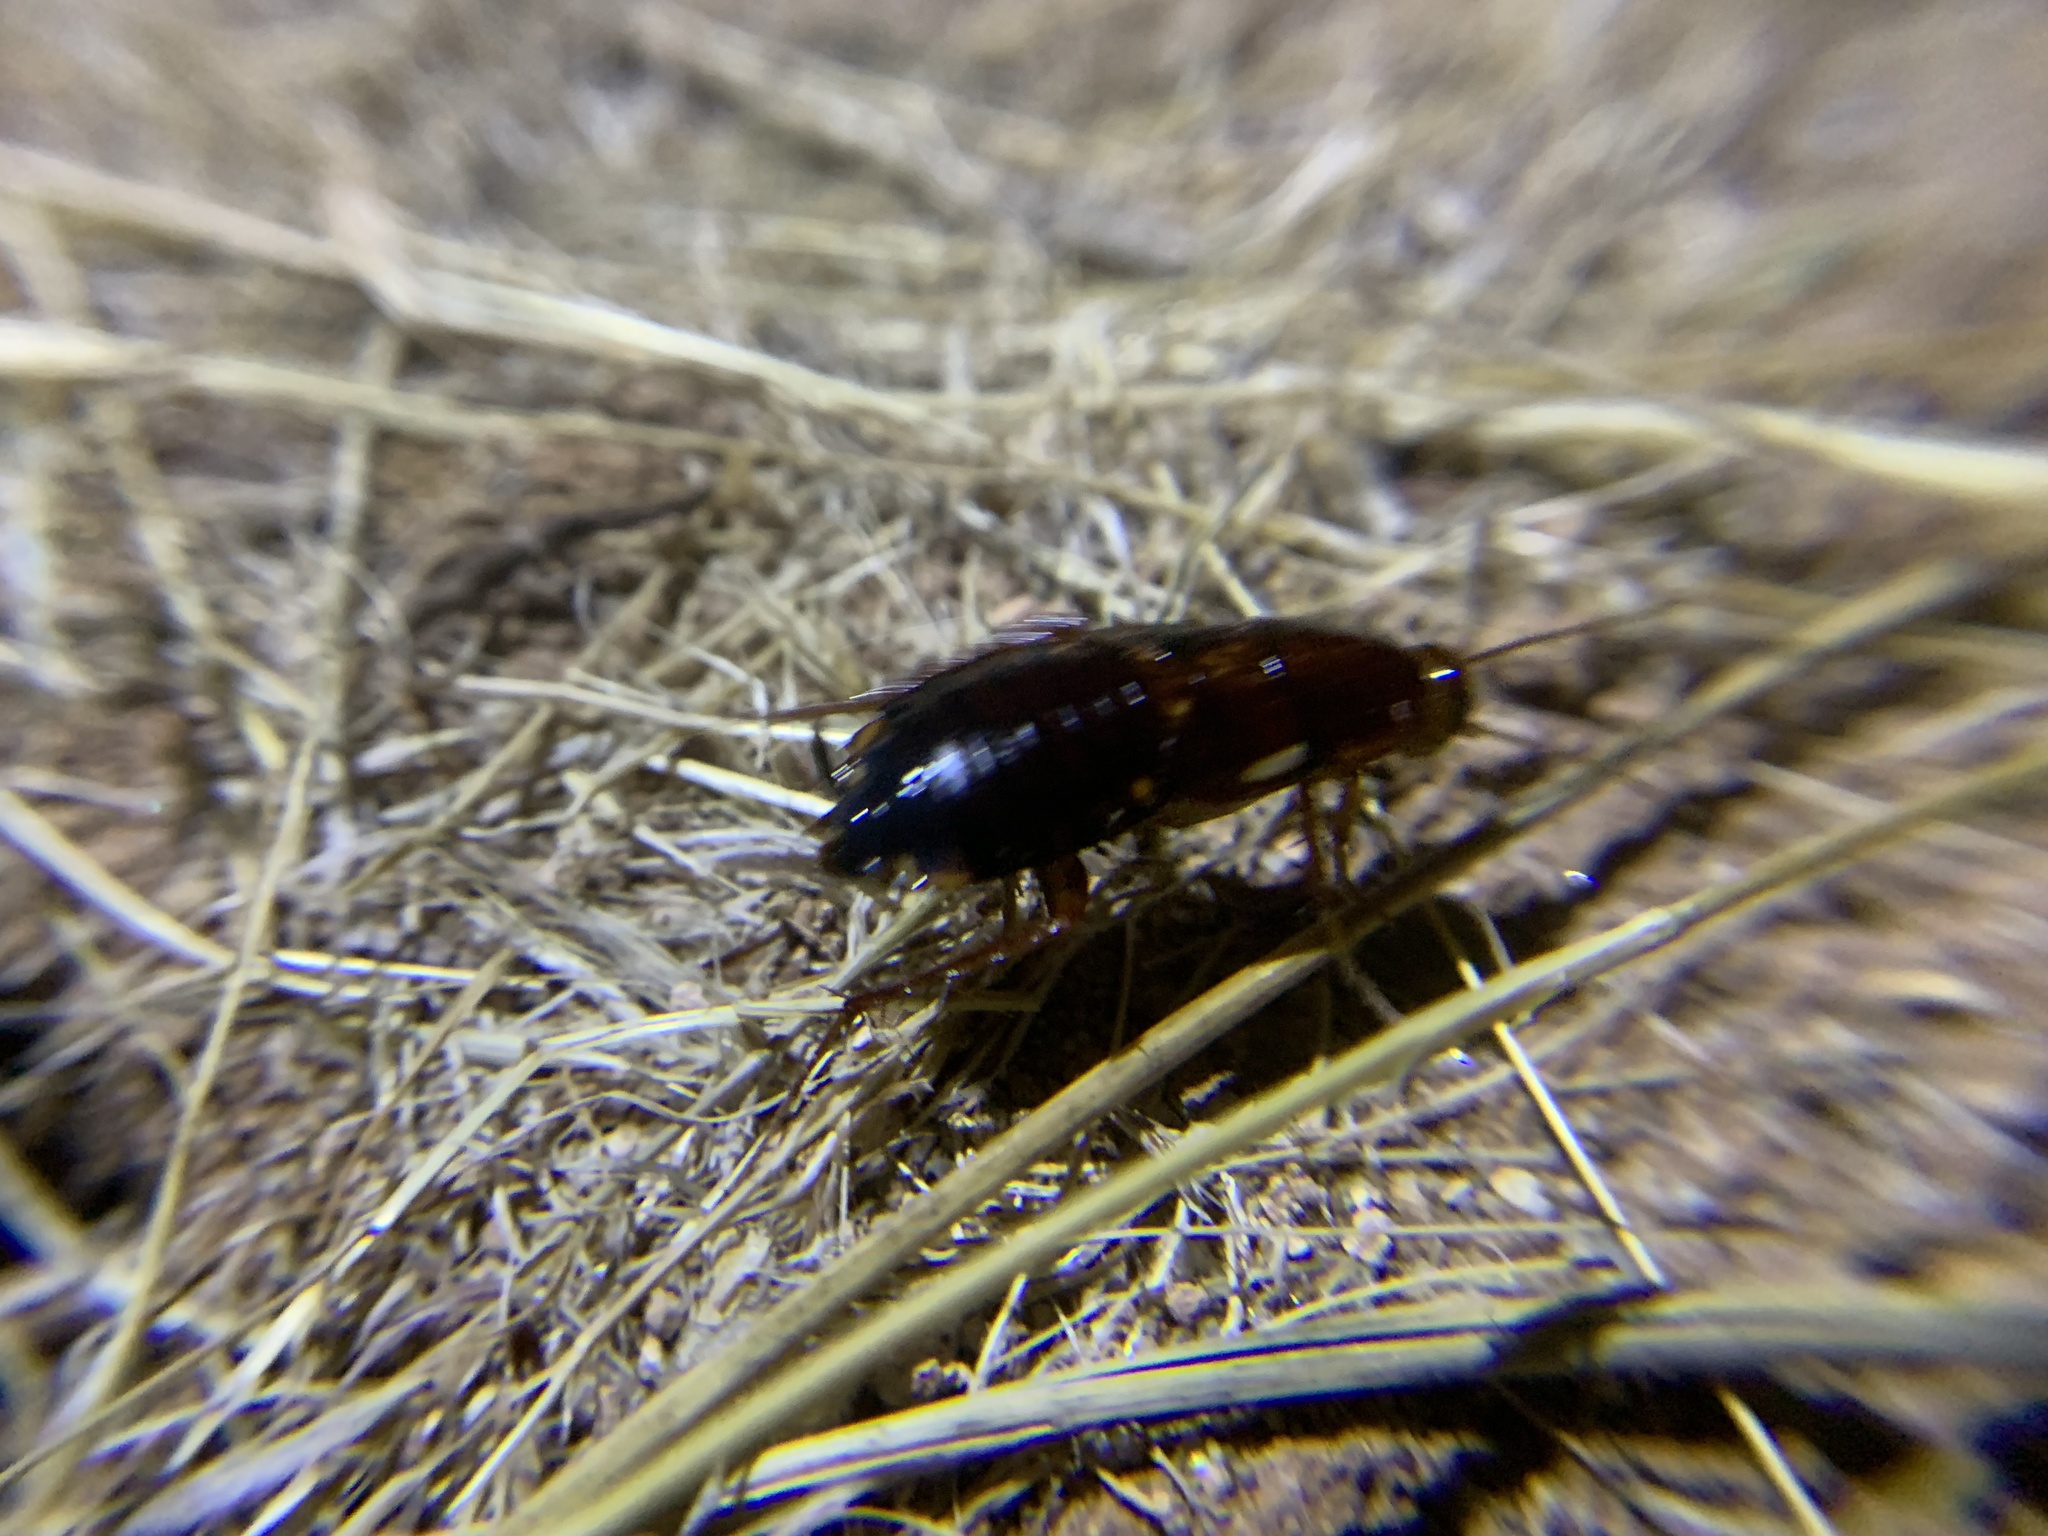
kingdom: Animalia
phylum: Arthropoda
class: Insecta
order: Blattodea
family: Blattidae
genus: Periplaneta
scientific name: Periplaneta lateralis
